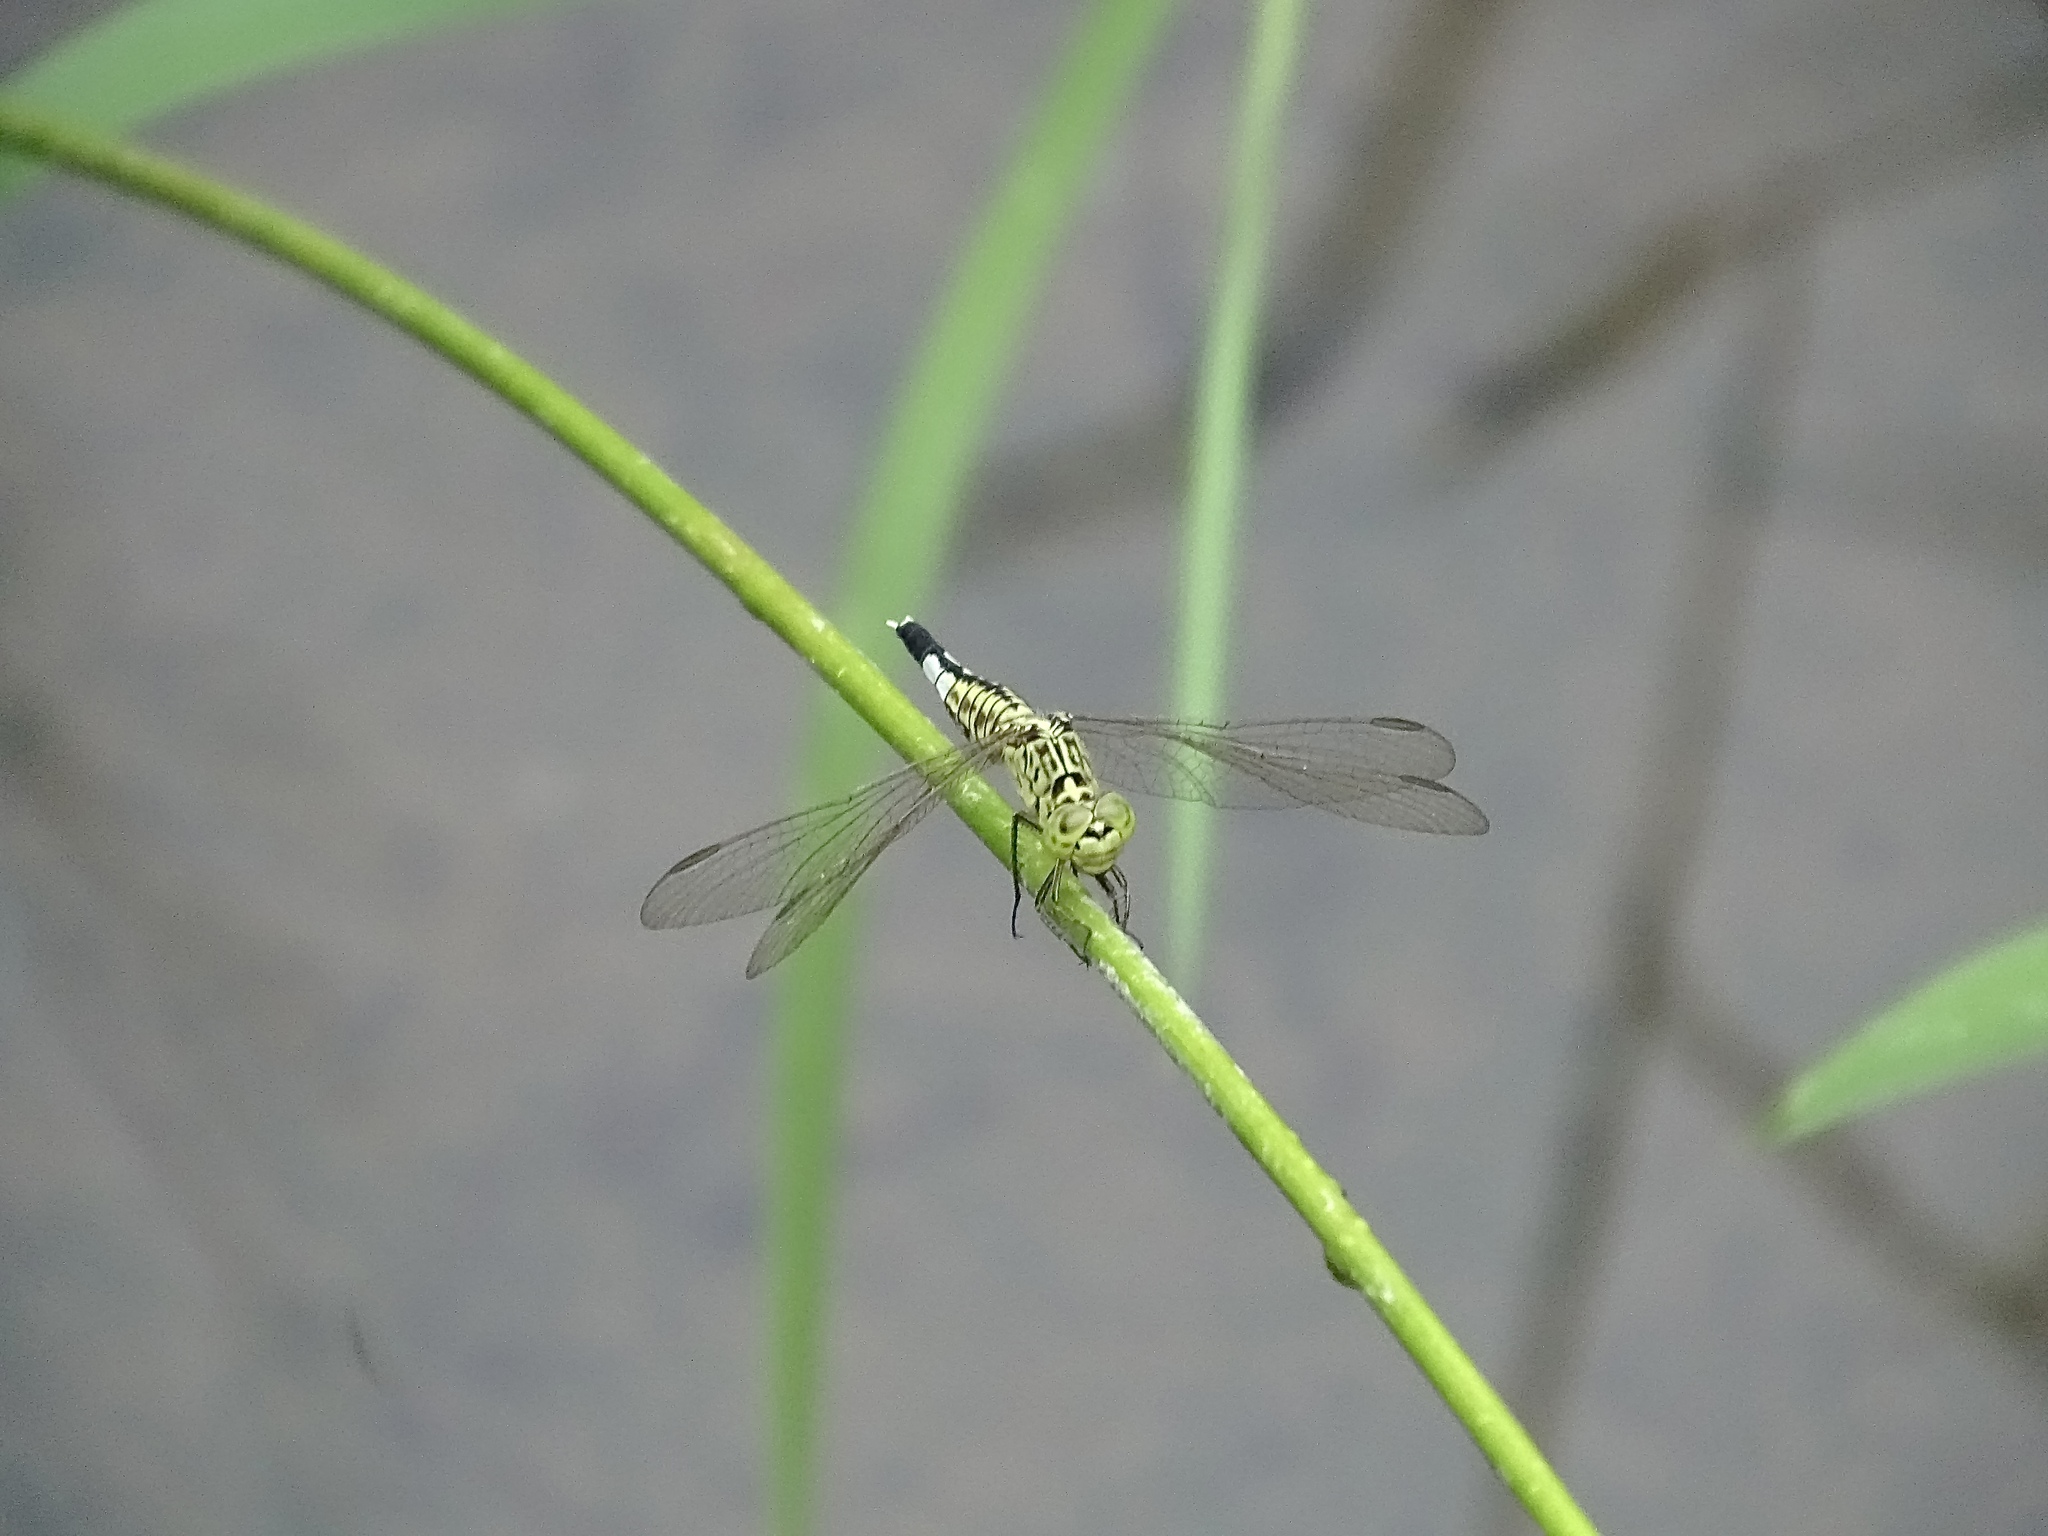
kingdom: Animalia
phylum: Arthropoda
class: Insecta
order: Odonata
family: Libellulidae
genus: Acisoma
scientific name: Acisoma panorpoides
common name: Asian pintail
